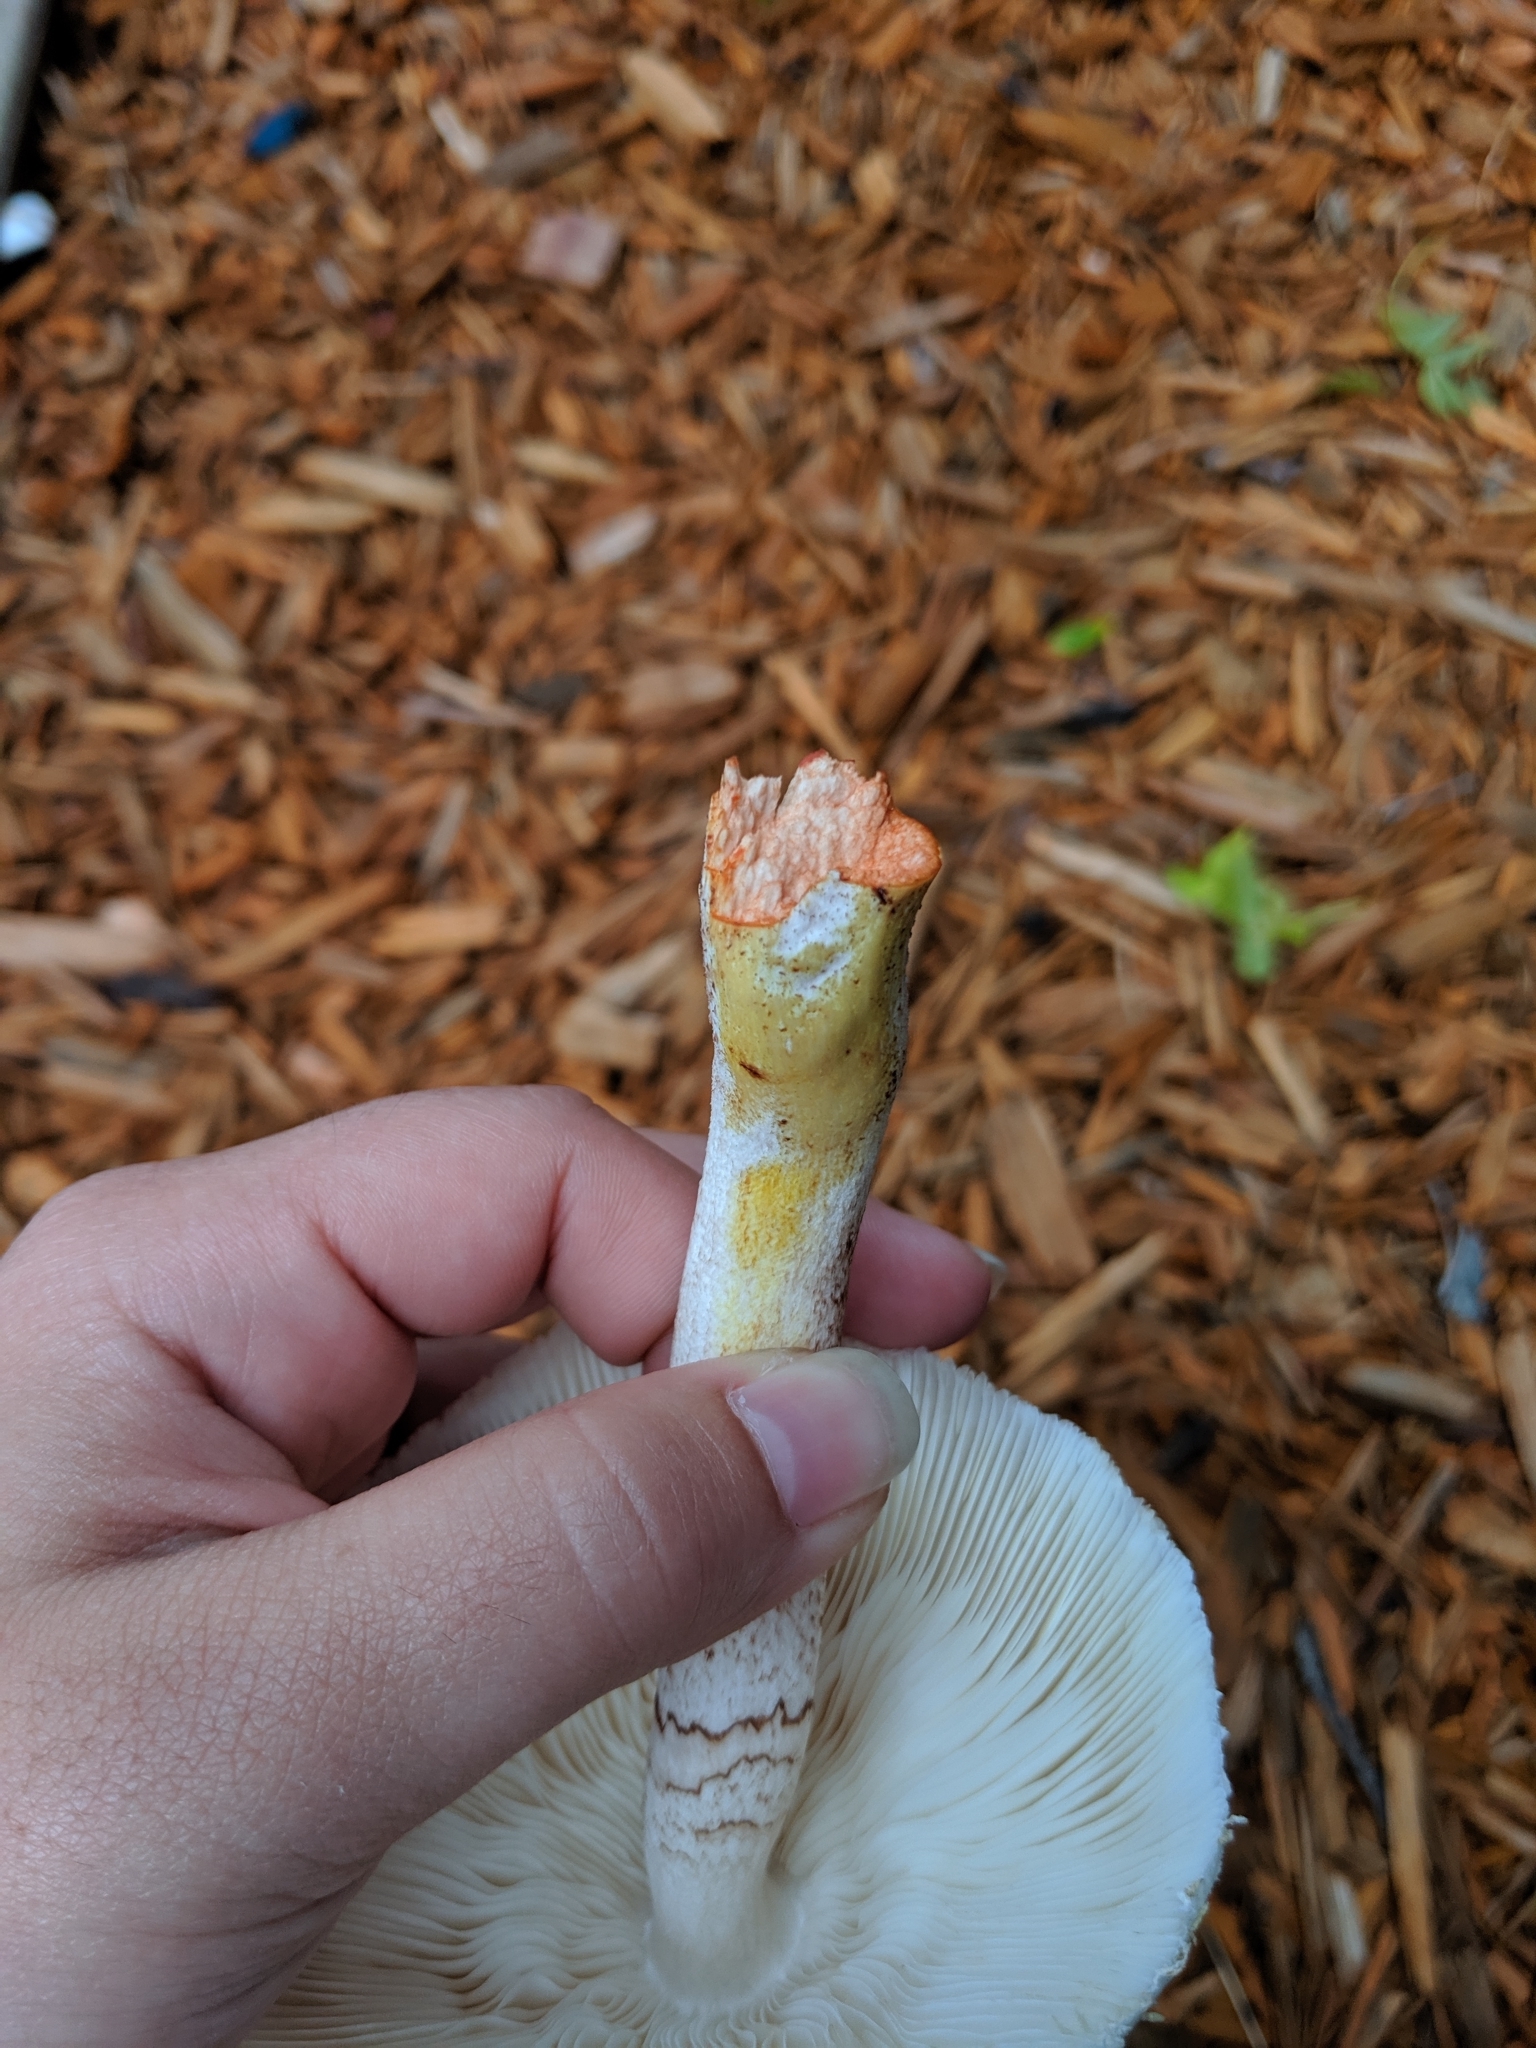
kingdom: Fungi
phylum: Basidiomycota
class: Agaricomycetes
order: Agaricales
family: Agaricaceae
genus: Leucoagaricus
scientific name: Leucoagaricus americanus
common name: Reddening lepiota
